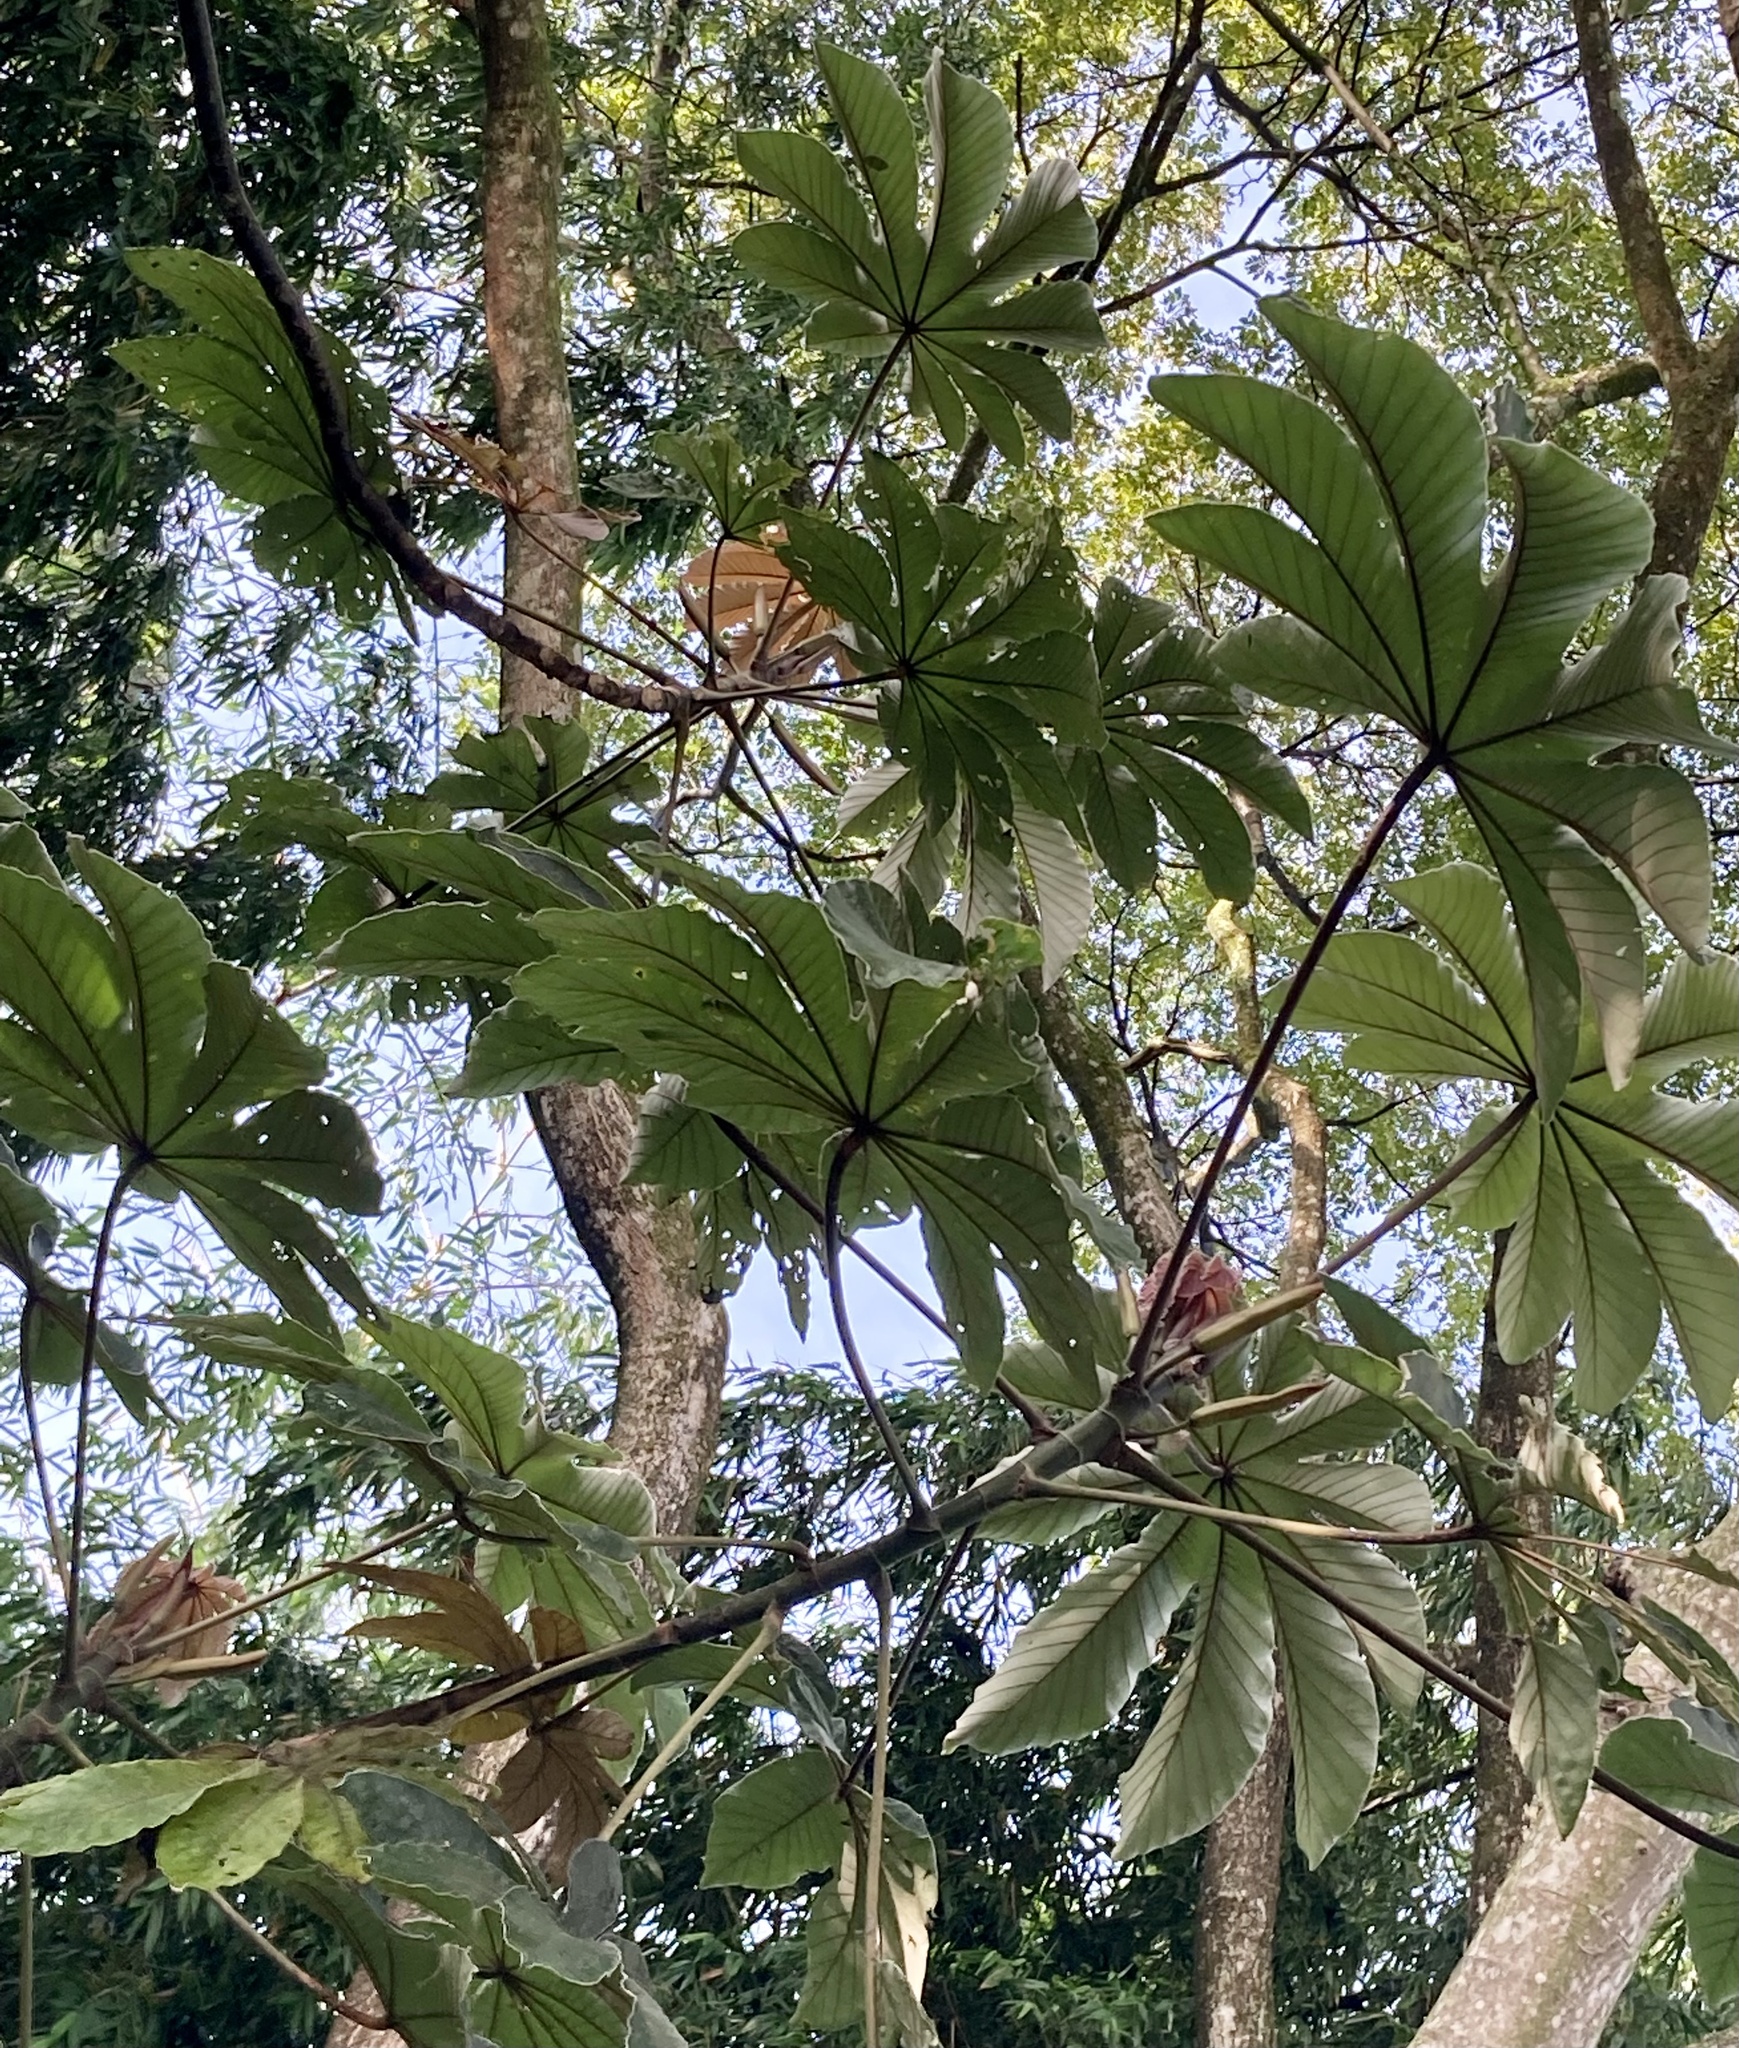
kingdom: Plantae
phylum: Tracheophyta
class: Magnoliopsida
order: Rosales
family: Urticaceae
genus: Cecropia
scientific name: Cecropia obtusifolia
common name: Trumpet tree
